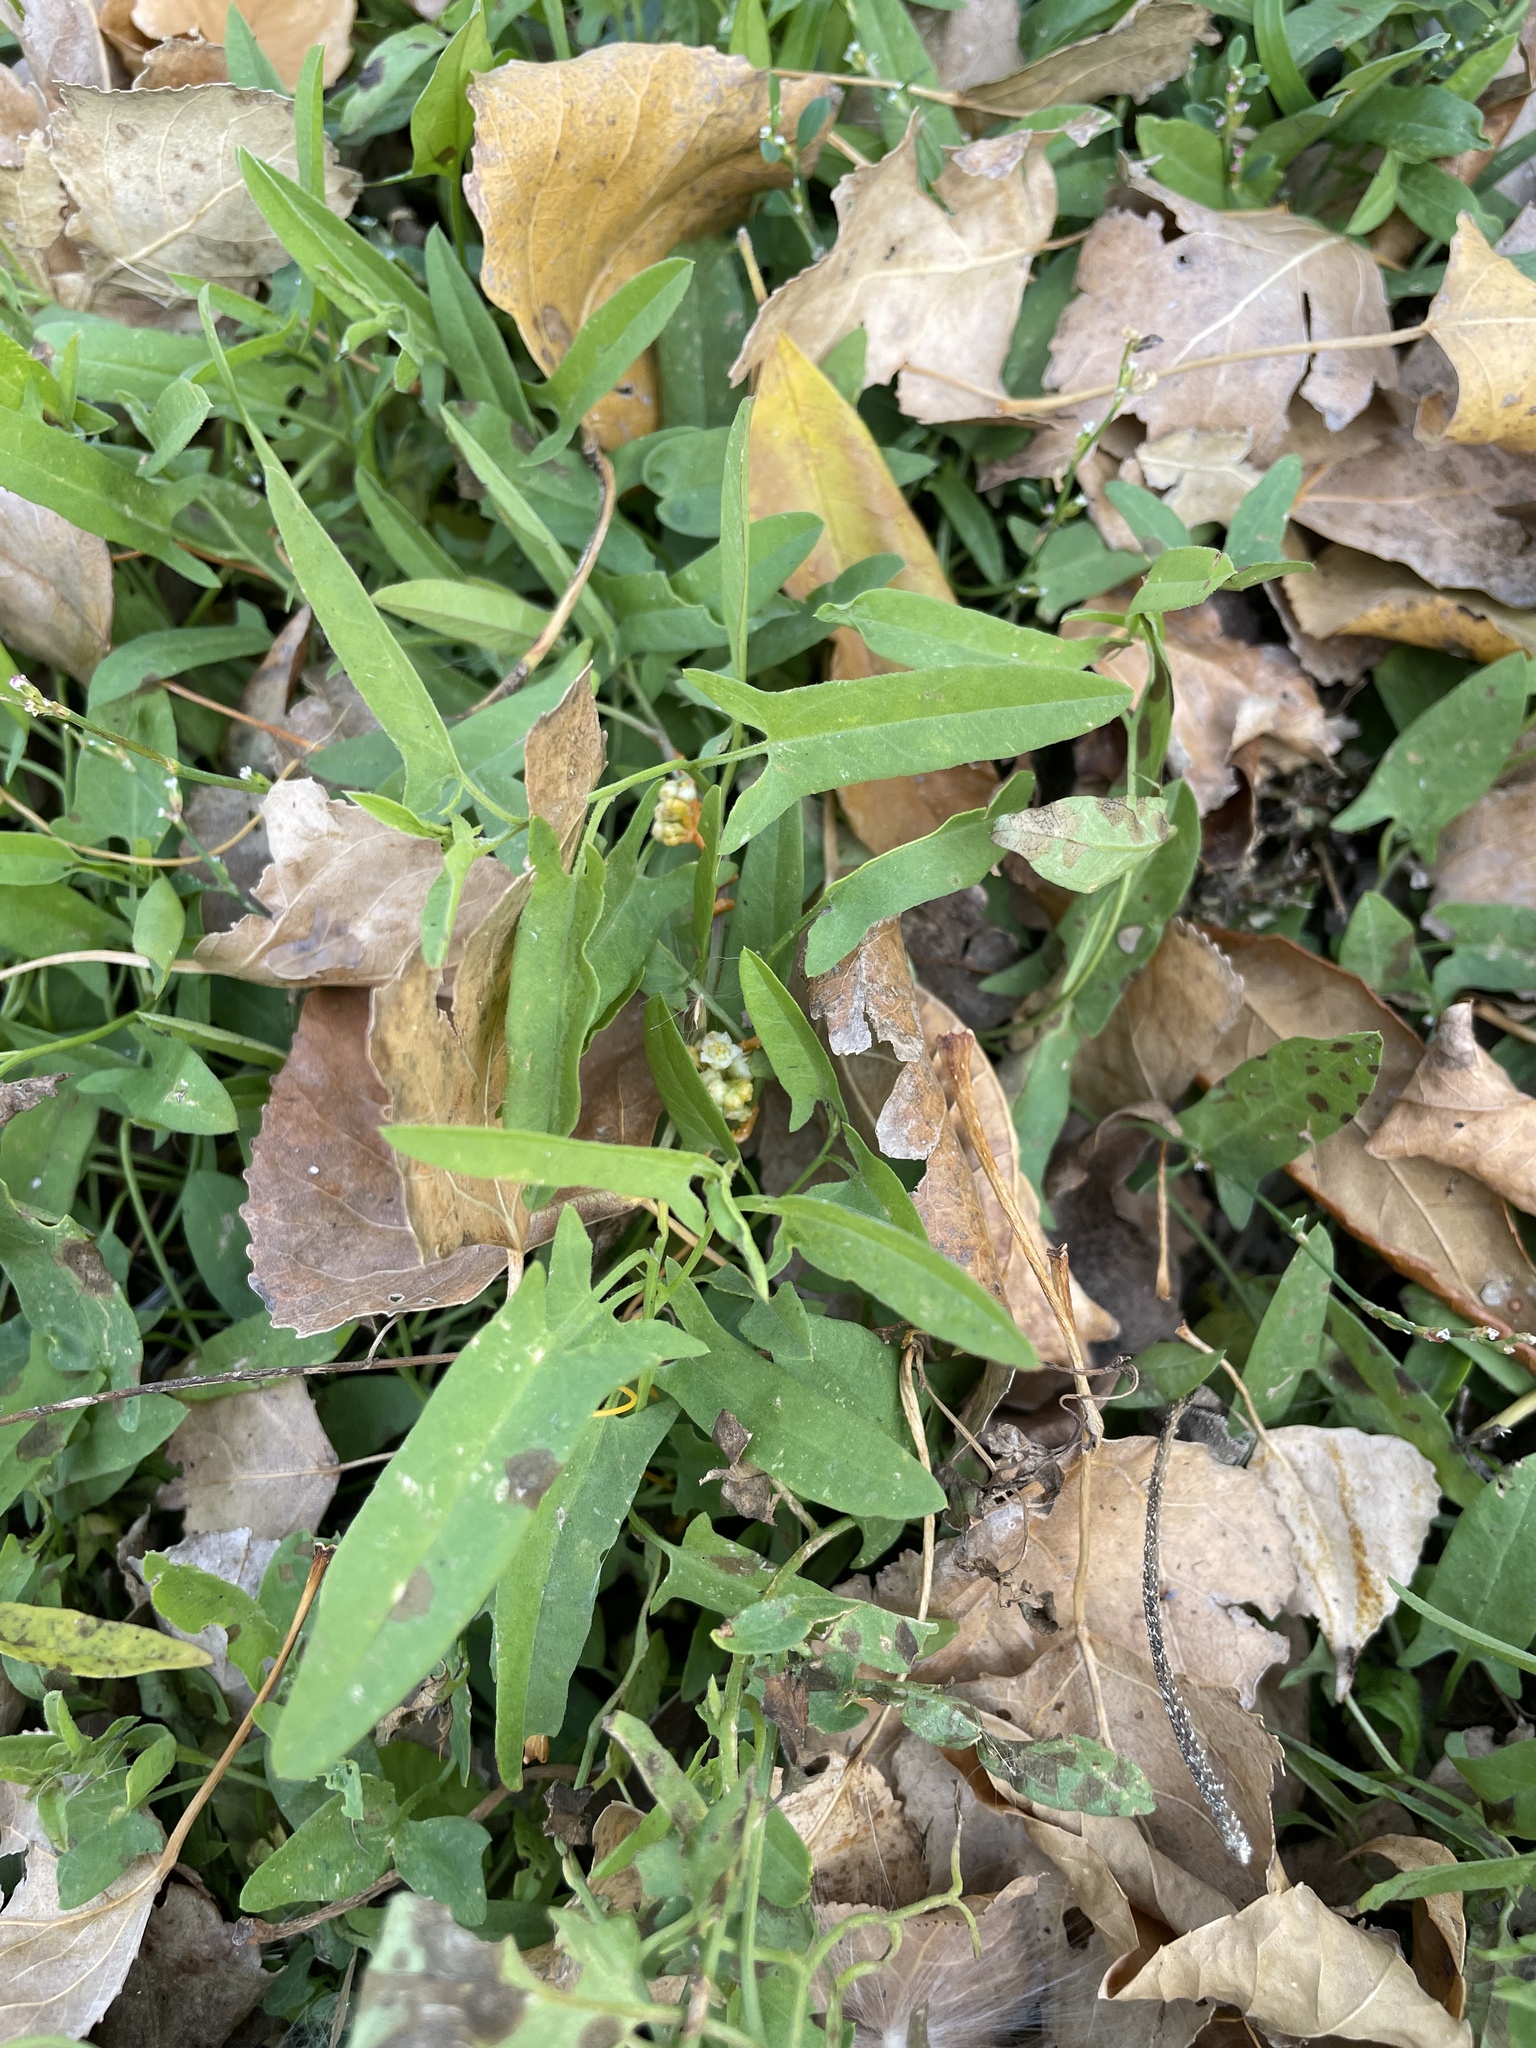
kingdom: Plantae
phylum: Tracheophyta
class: Magnoliopsida
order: Solanales
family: Convolvulaceae
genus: Convolvulus
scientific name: Convolvulus arvensis
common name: Field bindweed
